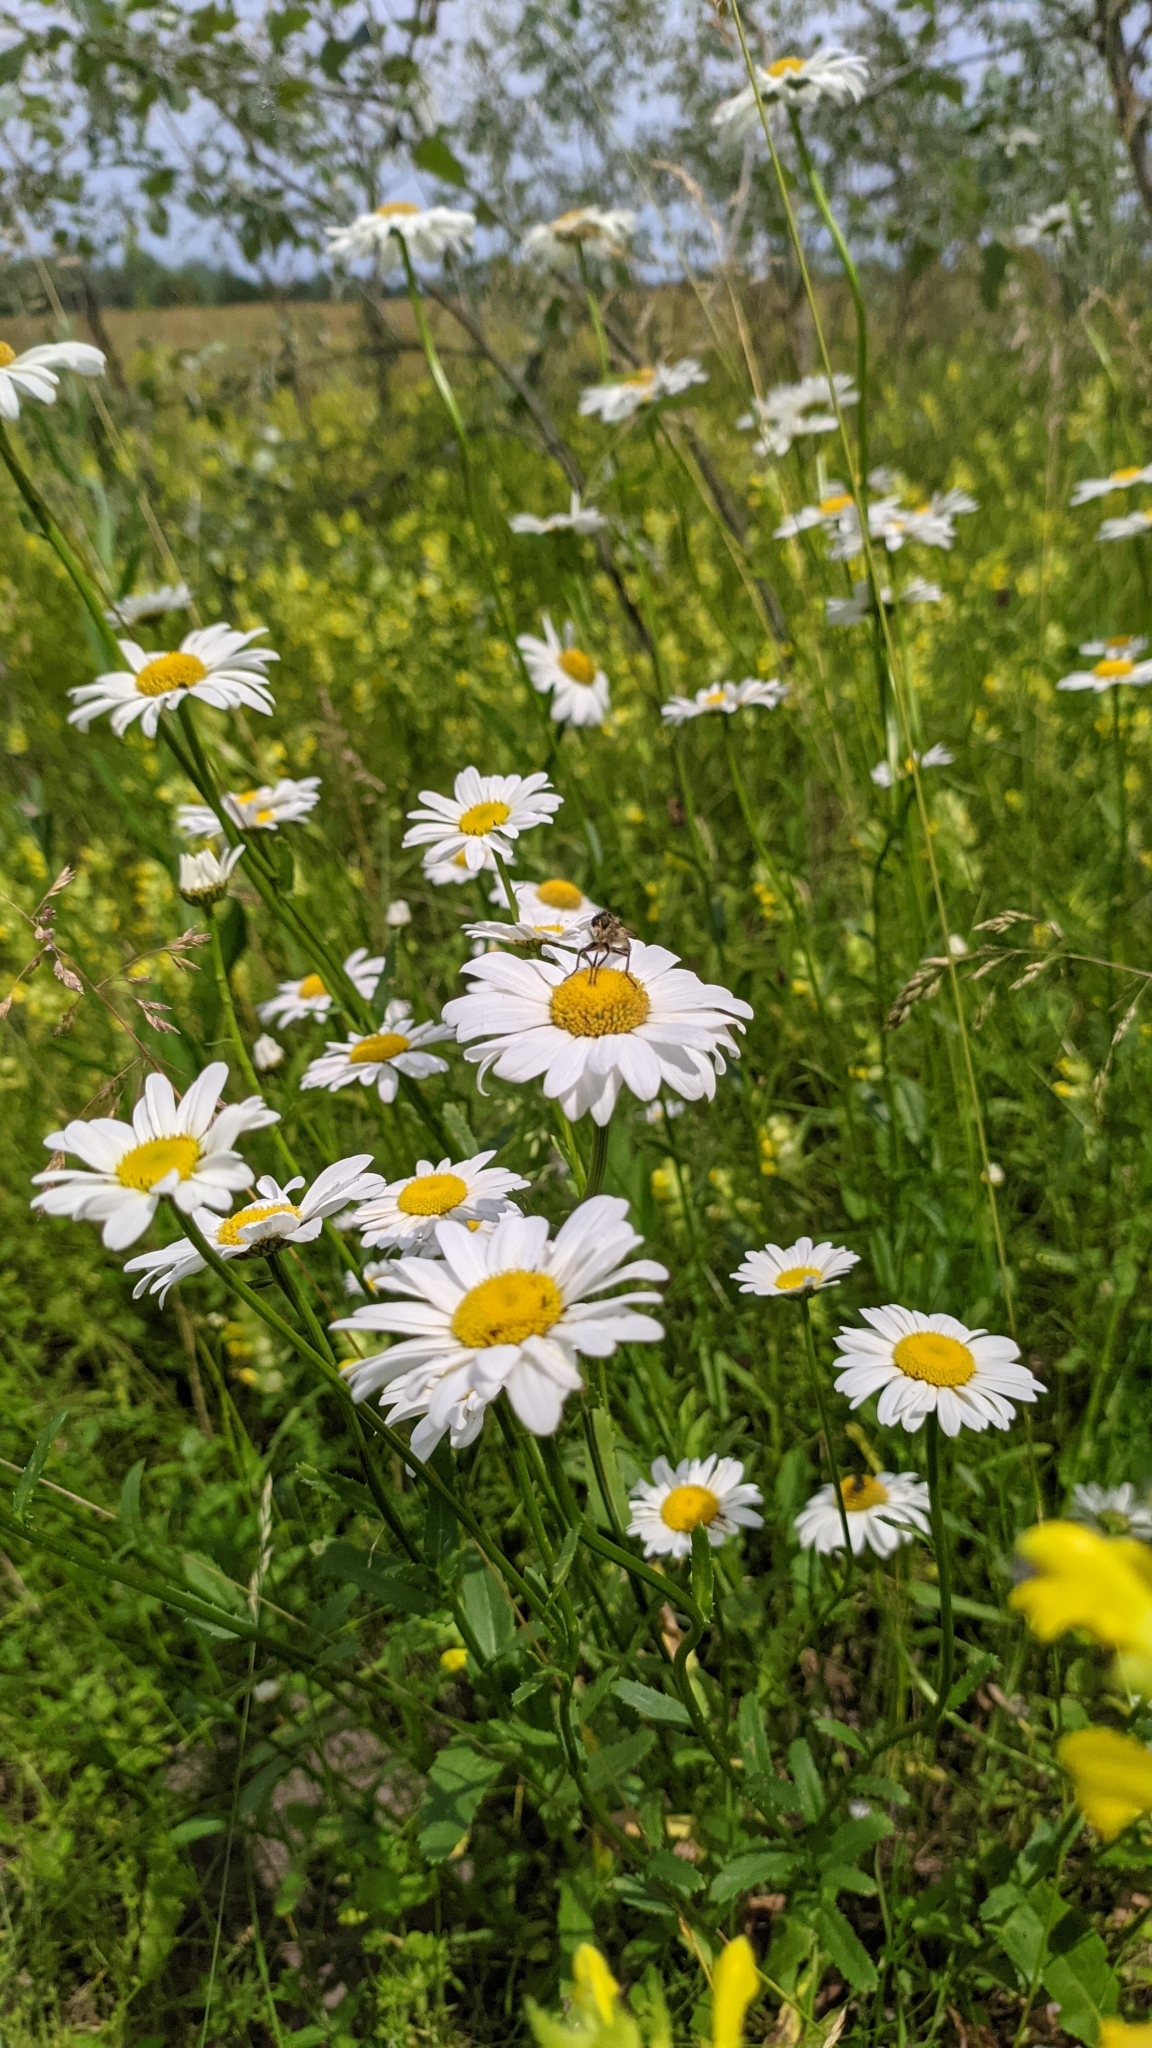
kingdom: Plantae
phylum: Tracheophyta
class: Magnoliopsida
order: Asterales
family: Asteraceae
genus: Leucanthemum
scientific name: Leucanthemum vulgare
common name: Oxeye daisy
